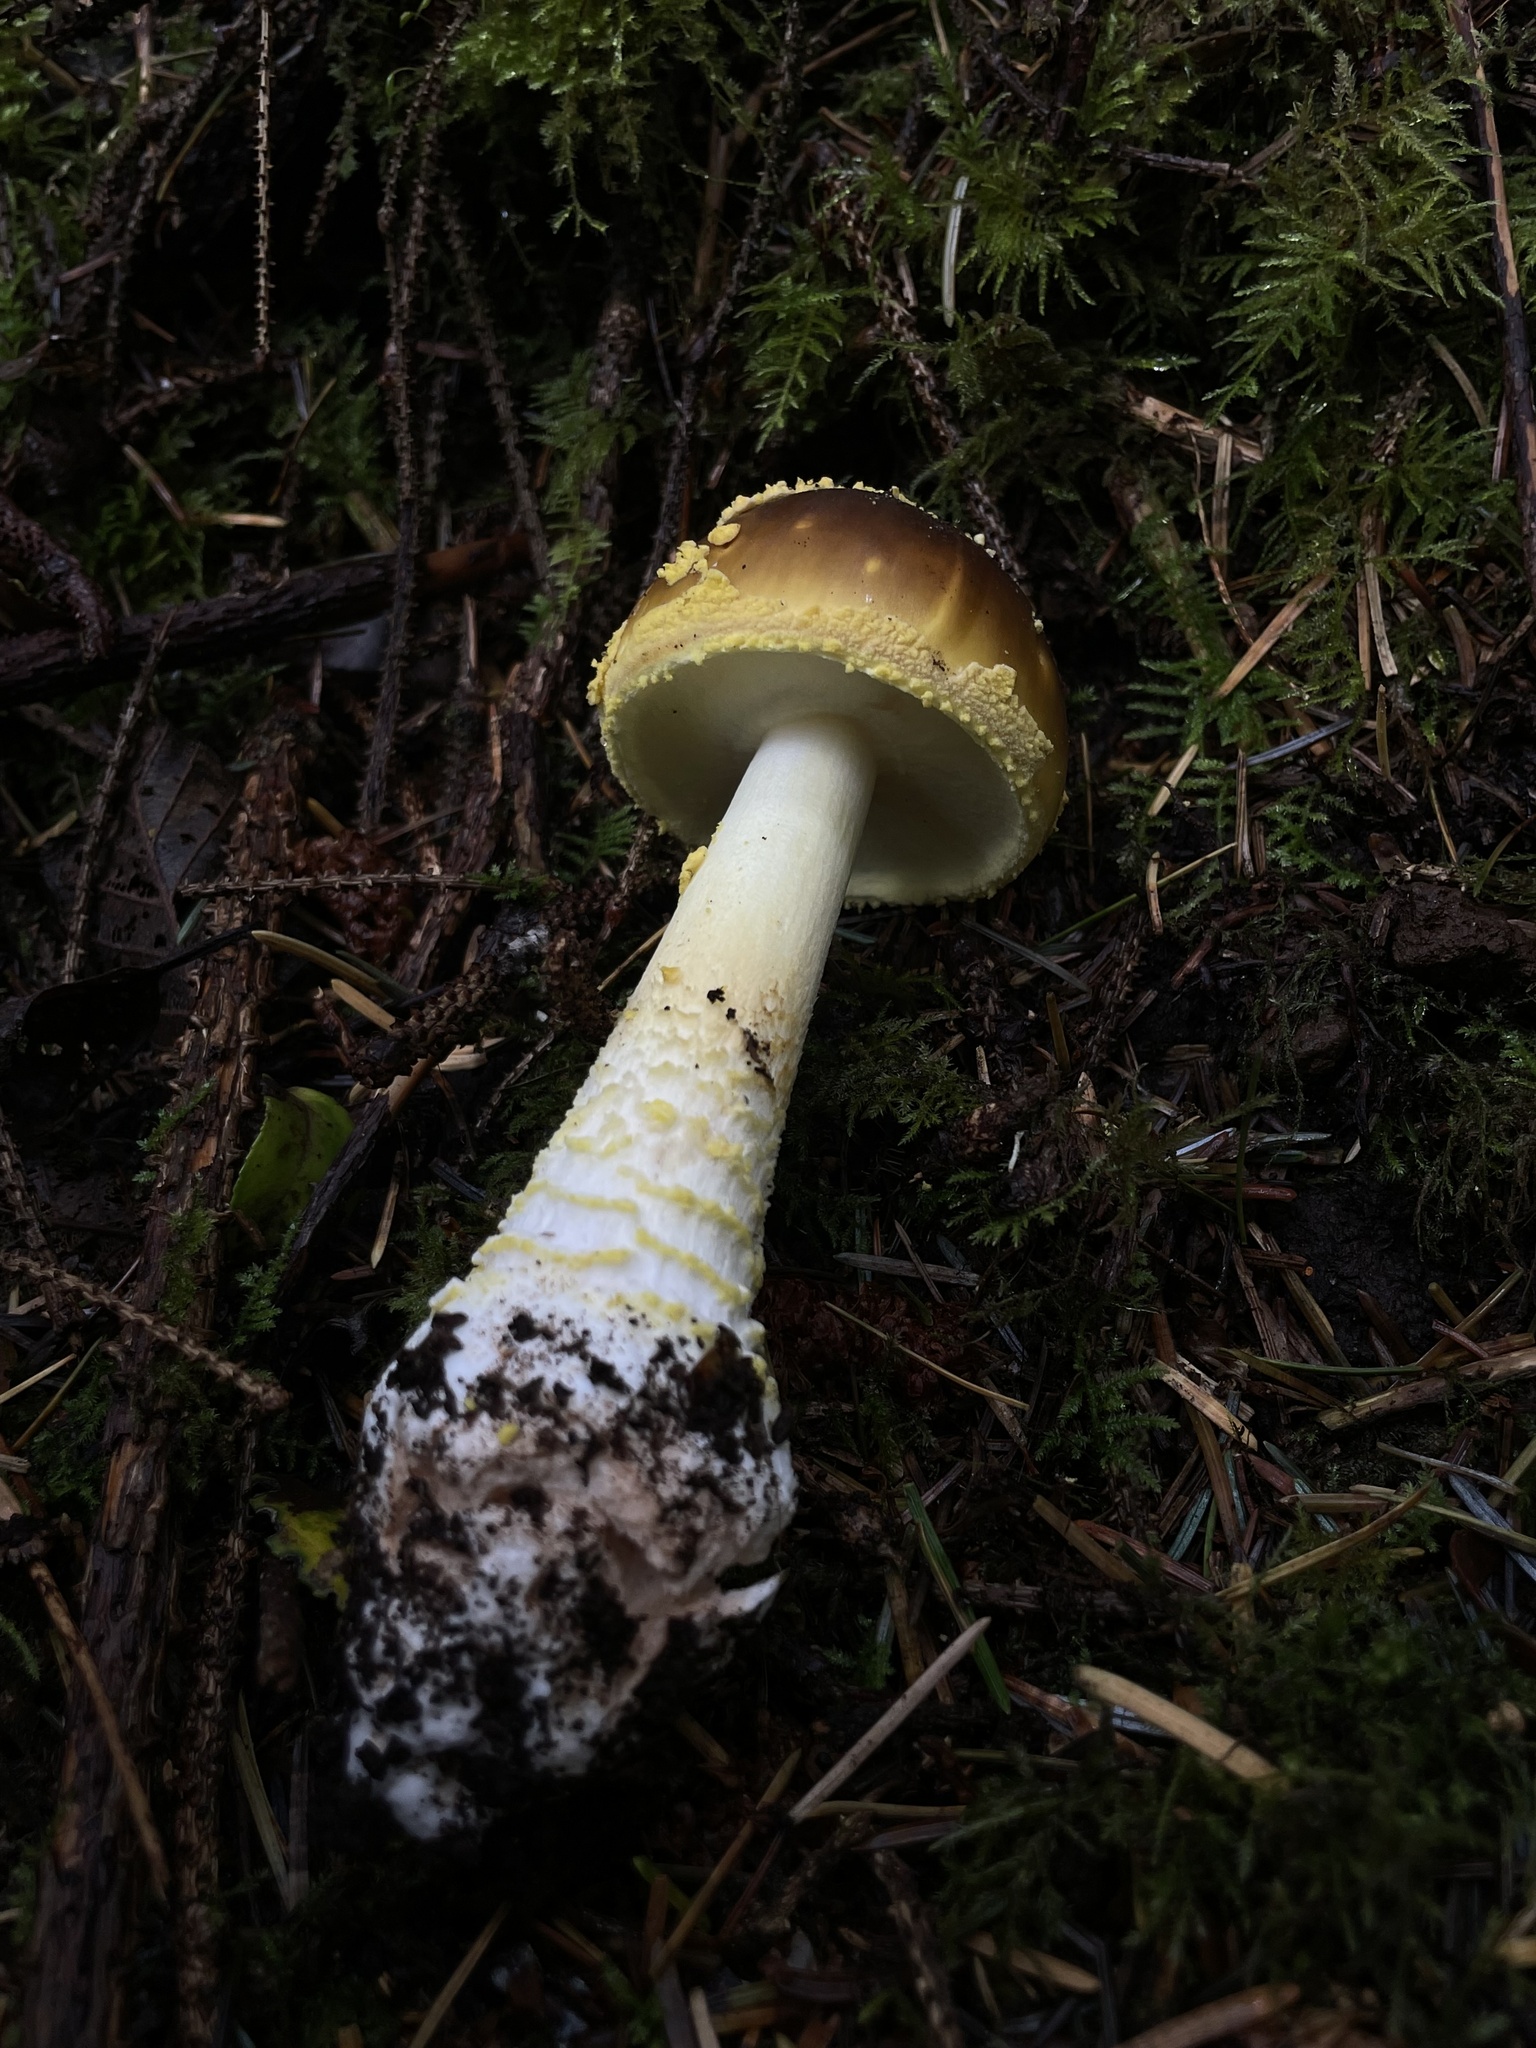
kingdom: Fungi
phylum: Basidiomycota
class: Agaricomycetes
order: Agaricales
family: Amanitaceae
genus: Amanita
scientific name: Amanita augusta
